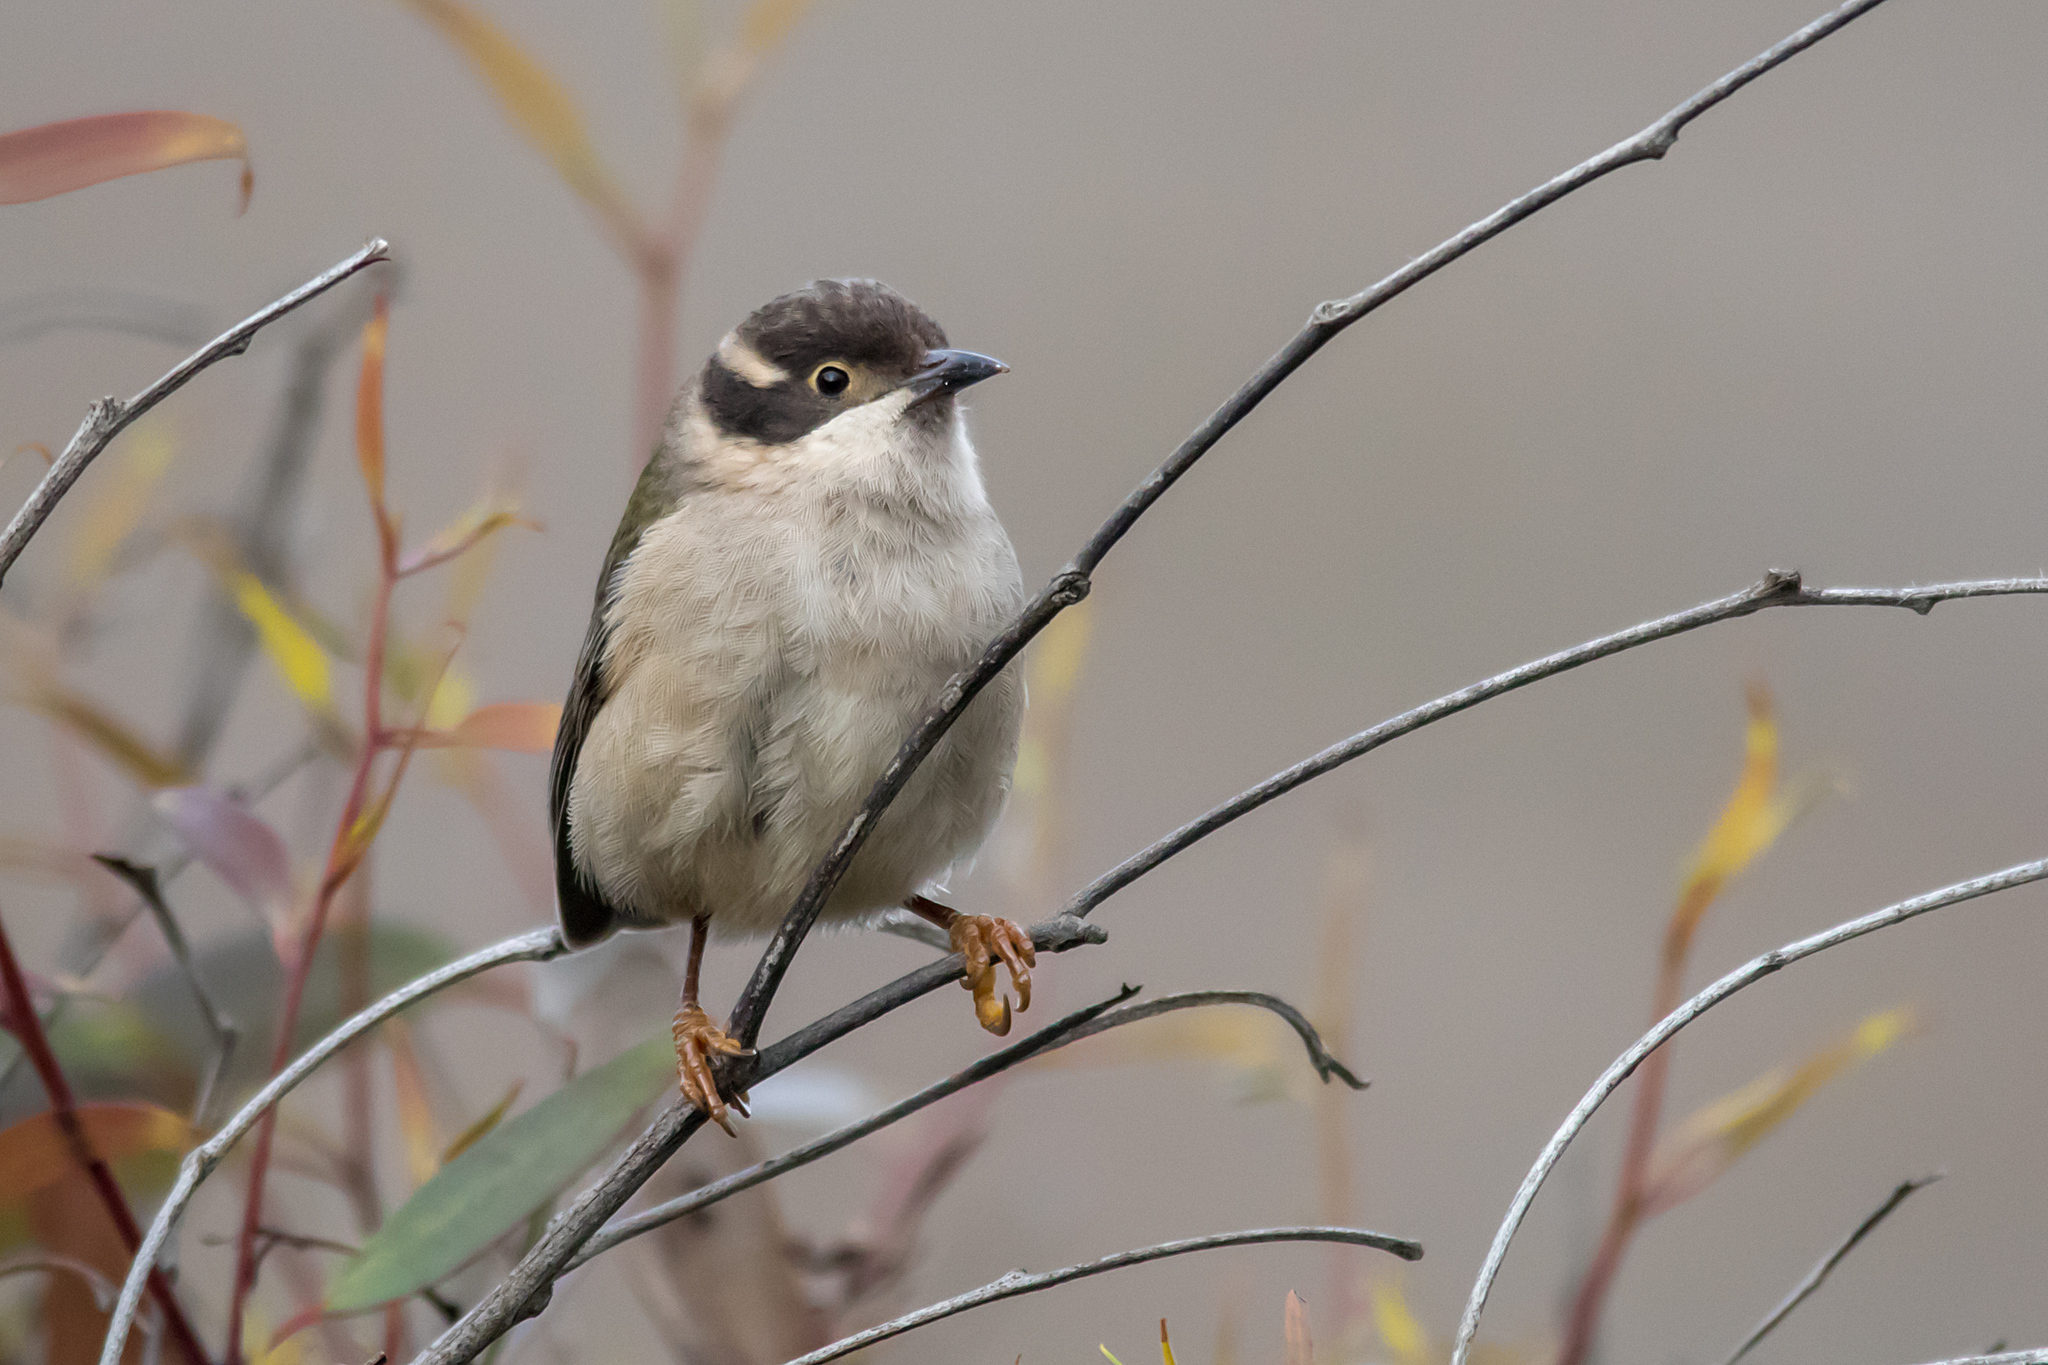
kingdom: Animalia
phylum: Chordata
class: Aves
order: Passeriformes
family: Meliphagidae
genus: Melithreptus
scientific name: Melithreptus brevirostris
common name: Brown-headed honeyeater
